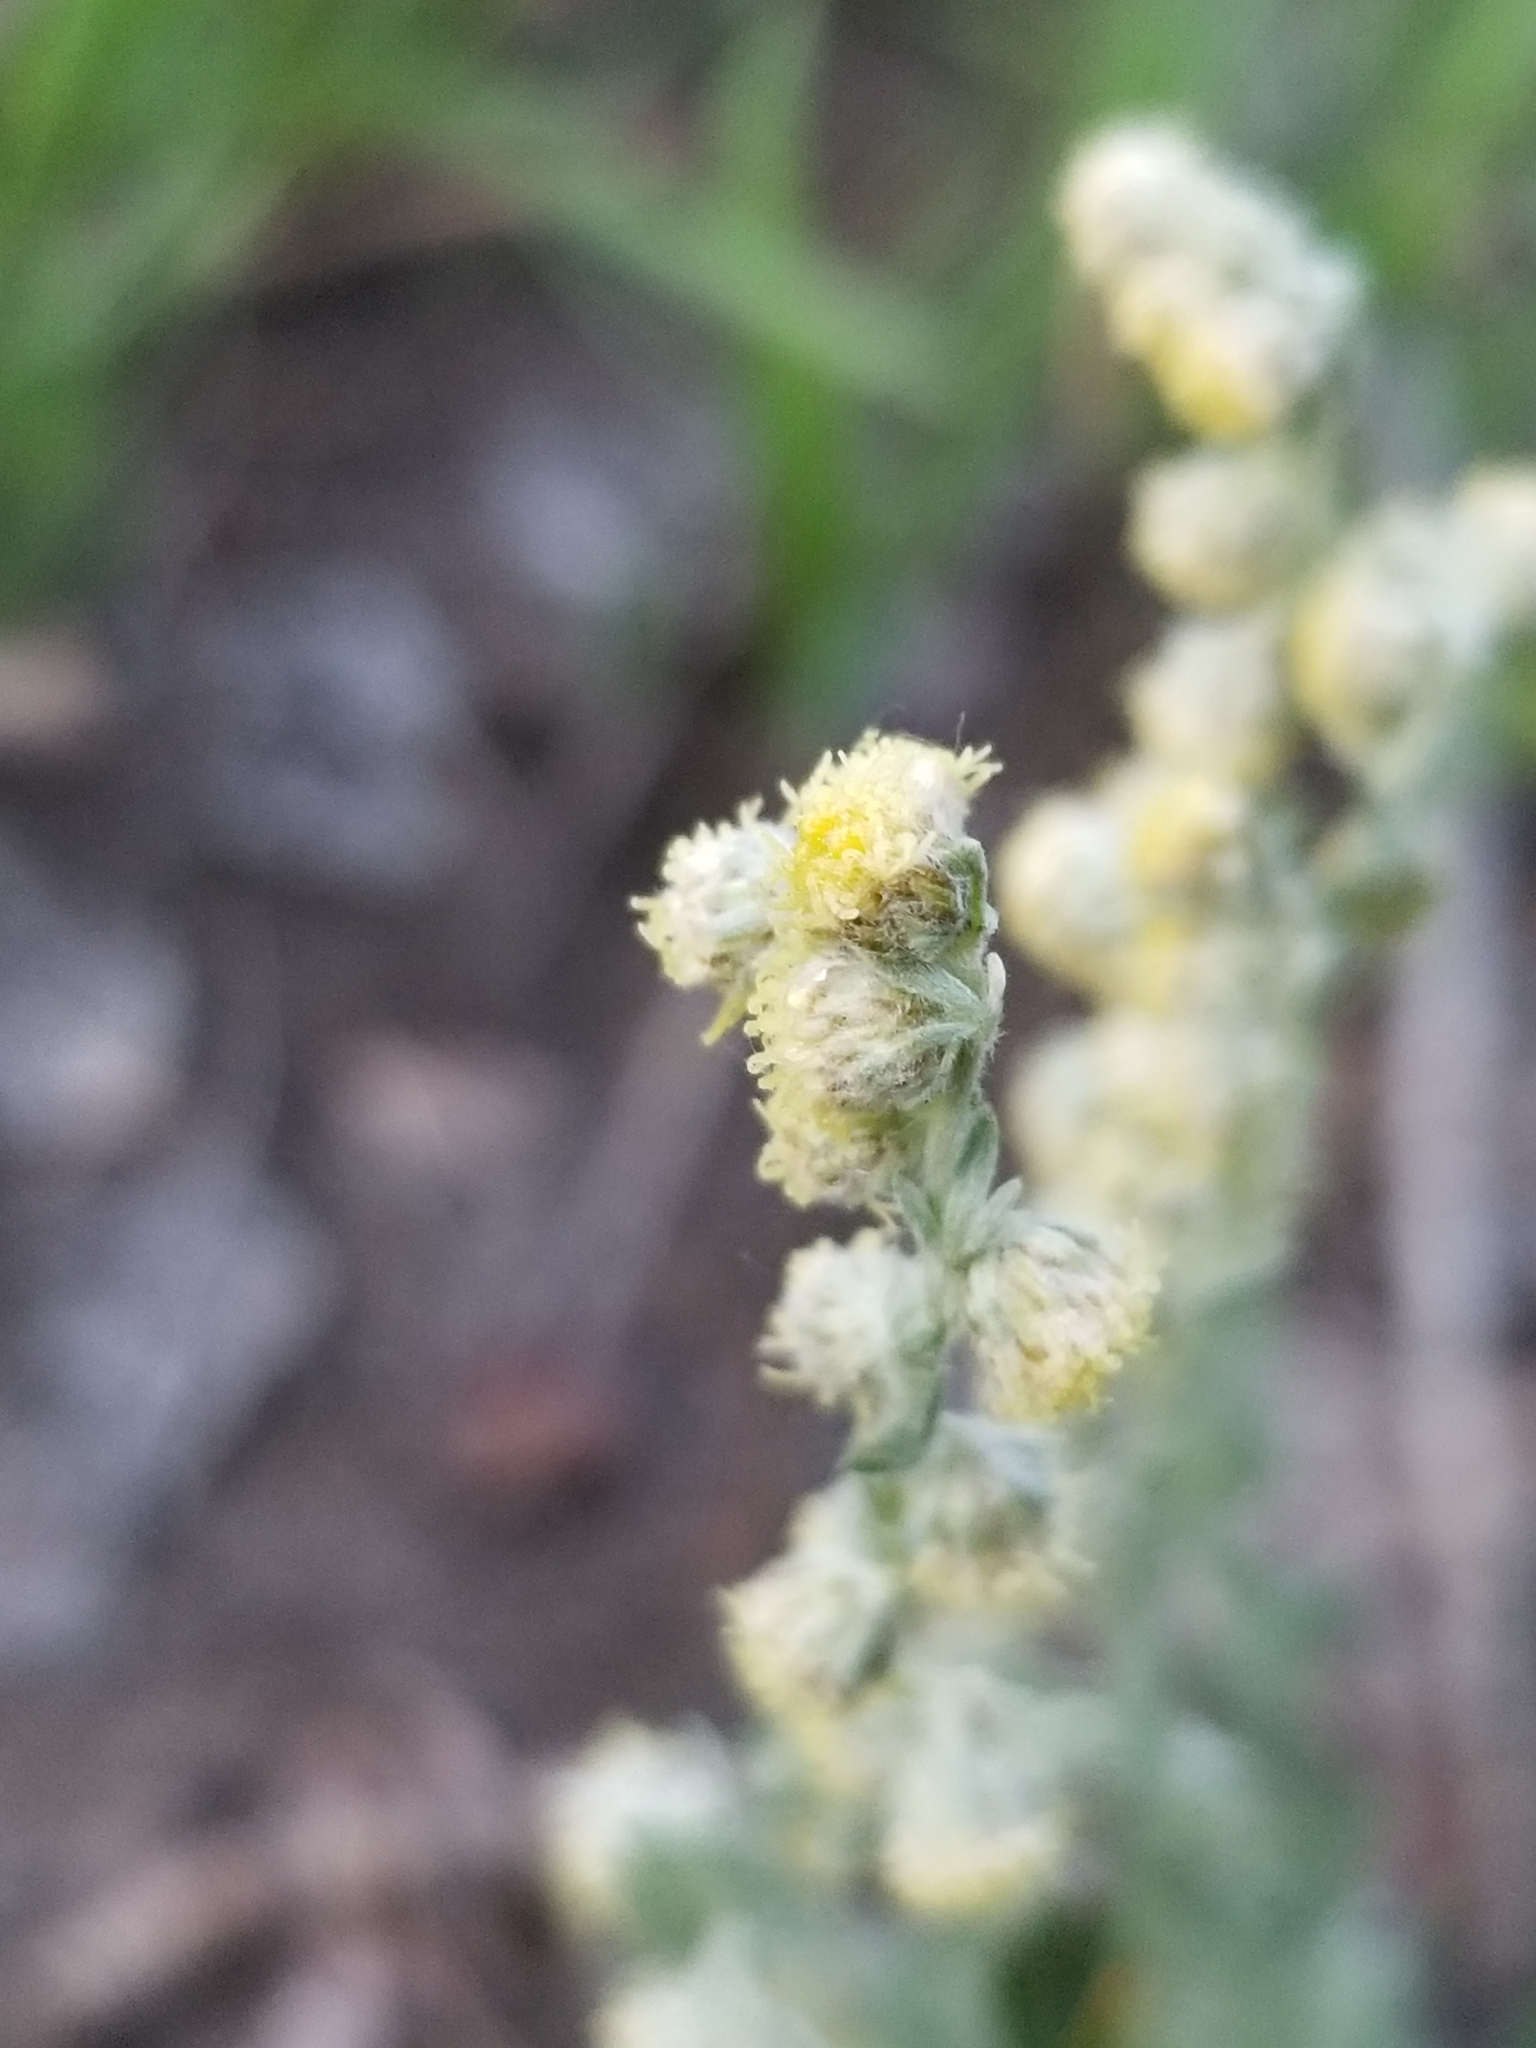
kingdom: Plantae
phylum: Tracheophyta
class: Magnoliopsida
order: Asterales
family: Asteraceae
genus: Artemisia
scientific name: Artemisia frigida
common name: Prairie sagewort
